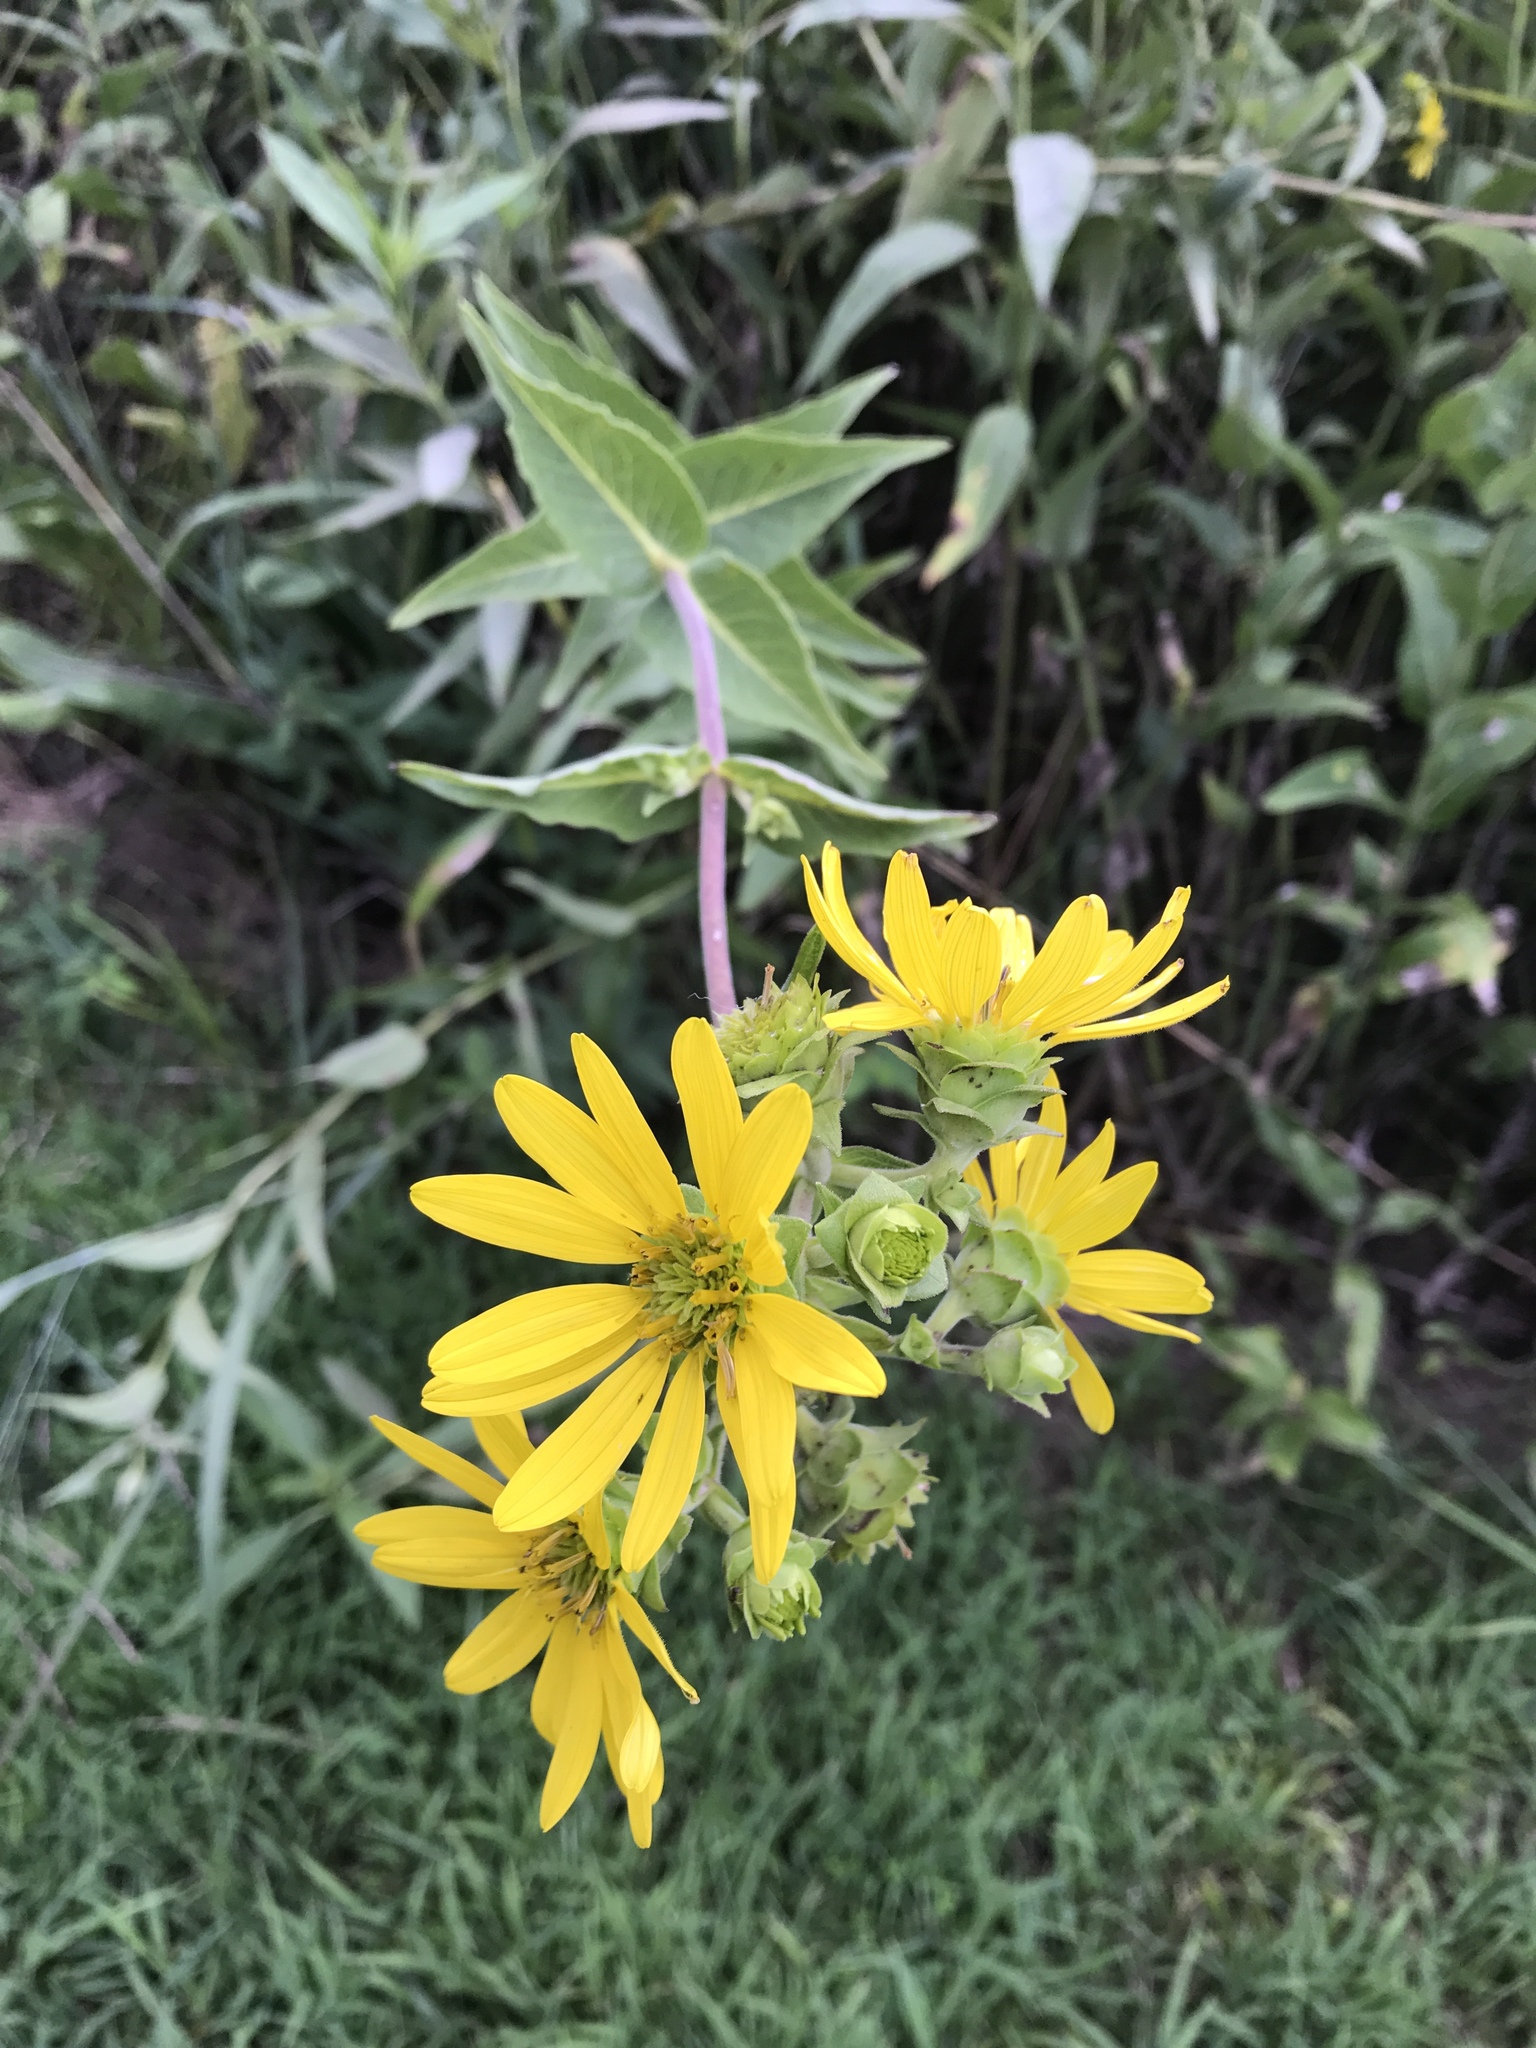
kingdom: Plantae
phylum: Tracheophyta
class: Magnoliopsida
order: Asterales
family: Asteraceae
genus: Silphium
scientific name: Silphium integrifolium
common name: Whole-leaf rosinweed
